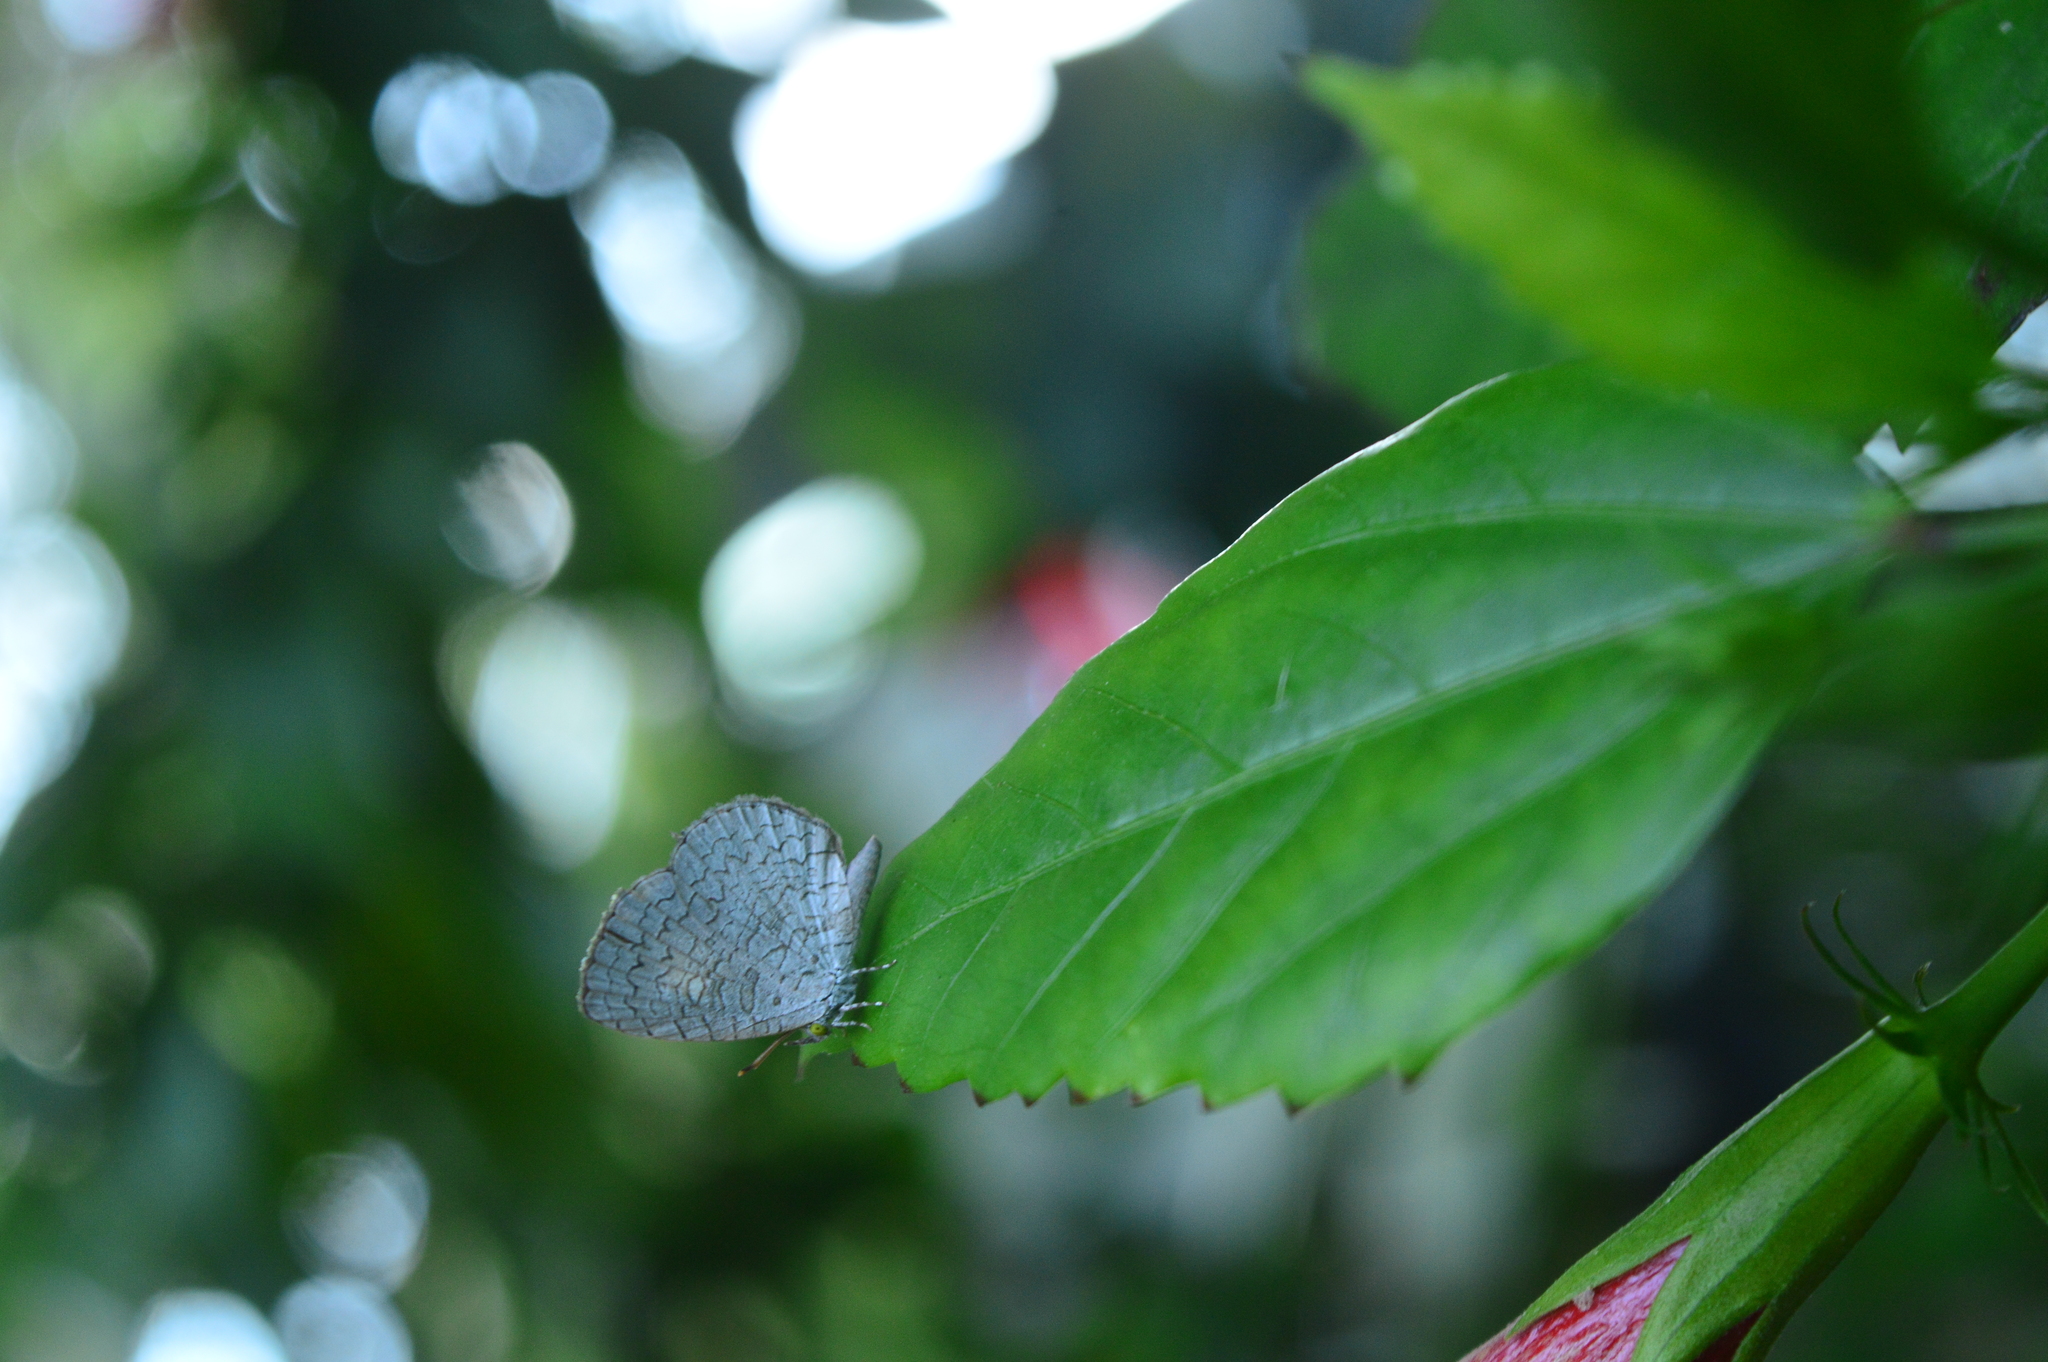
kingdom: Animalia
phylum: Arthropoda
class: Insecta
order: Lepidoptera
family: Lycaenidae
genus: Spalgis
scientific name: Spalgis epius
